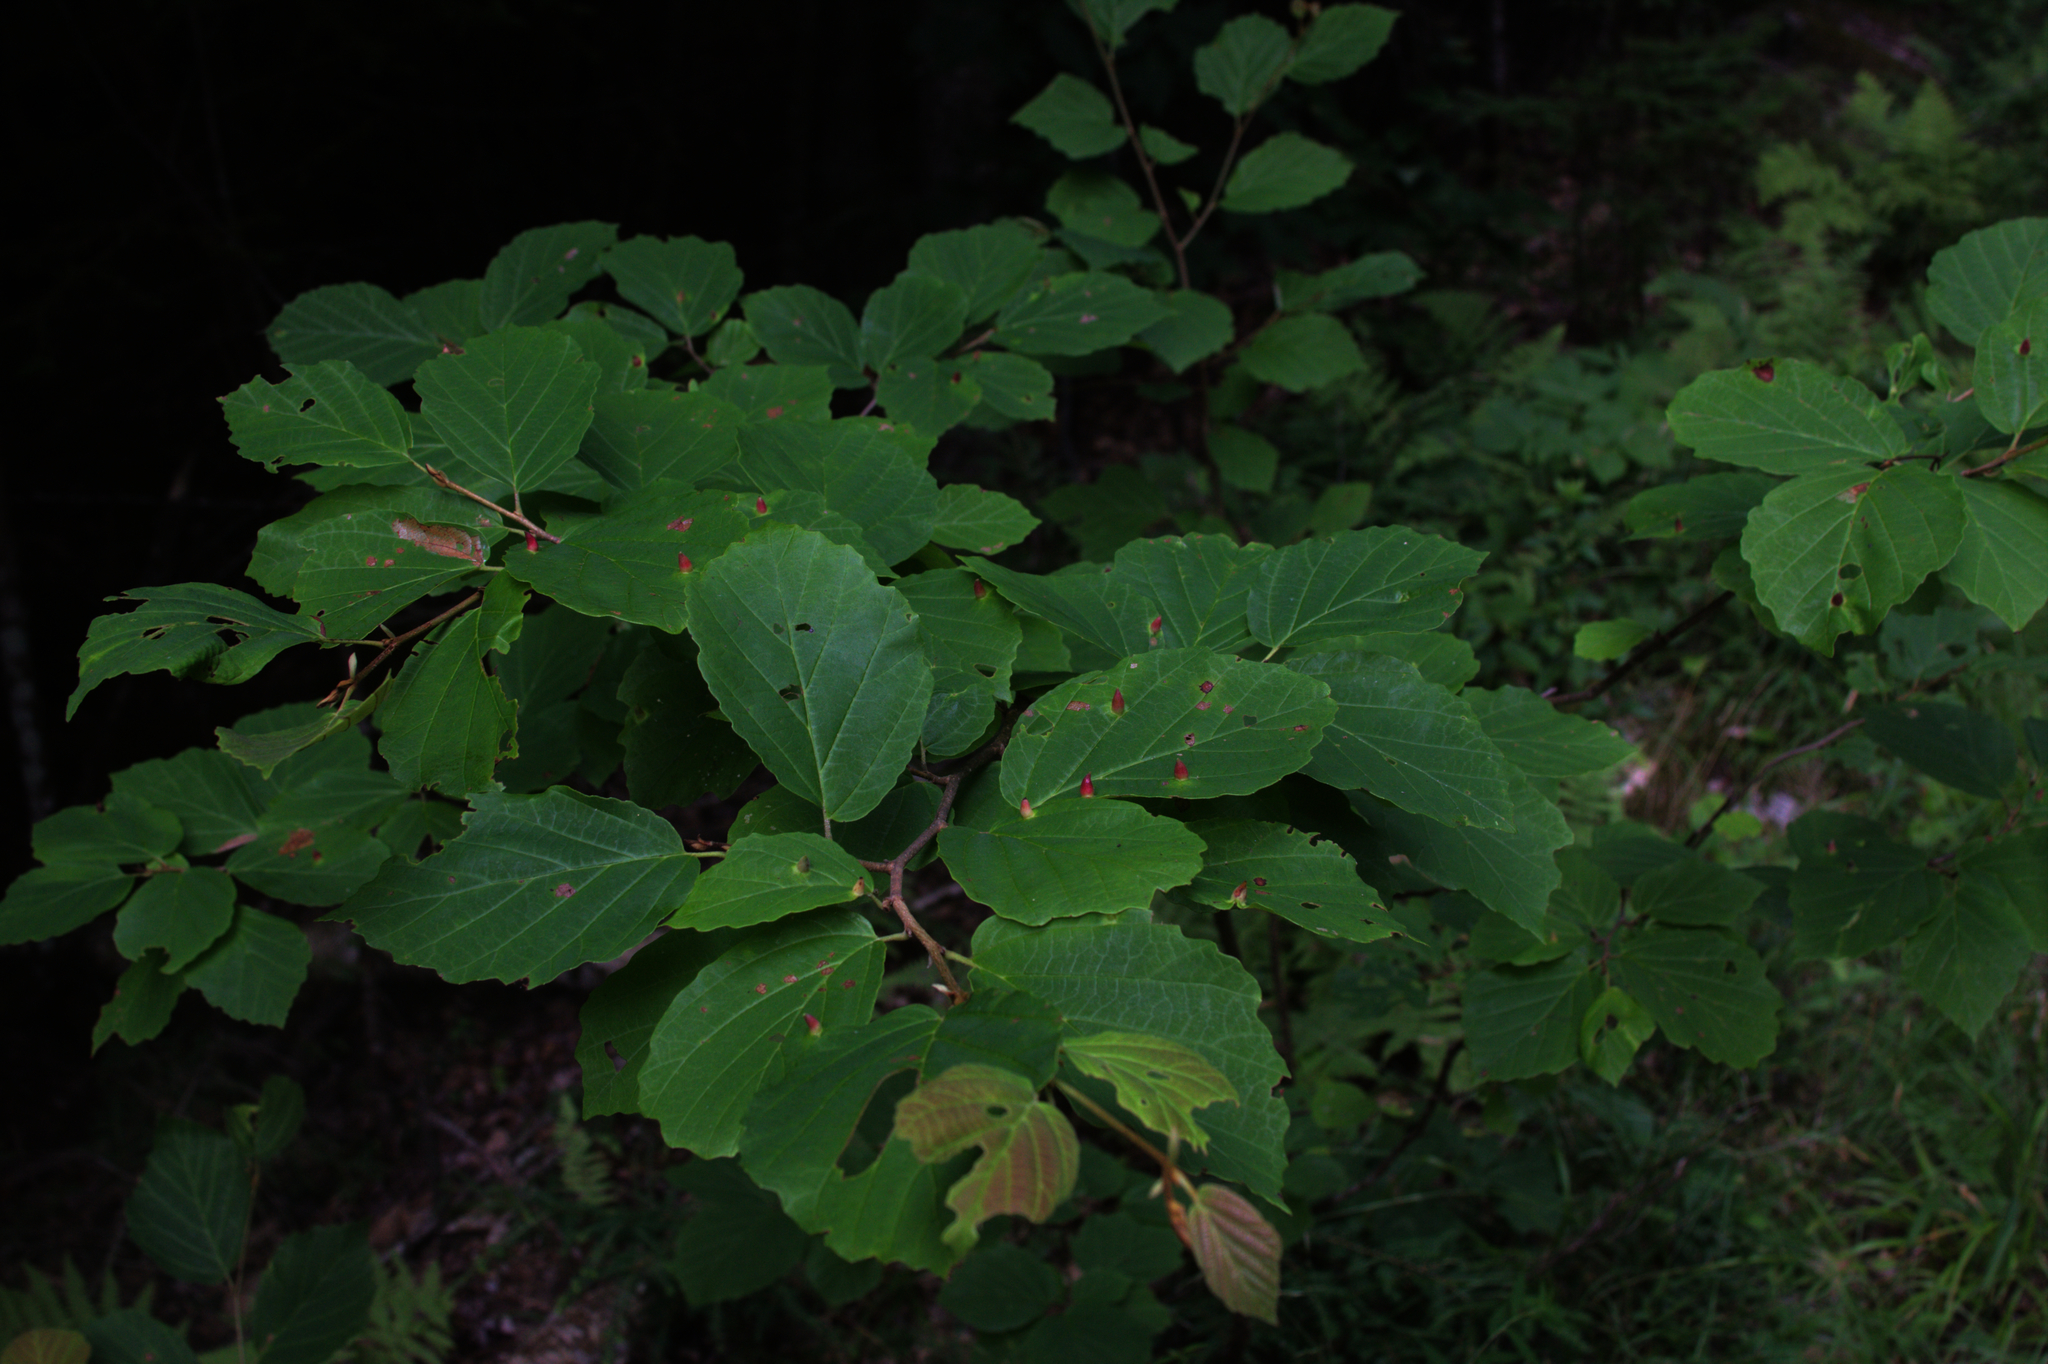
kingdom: Plantae
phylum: Tracheophyta
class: Magnoliopsida
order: Saxifragales
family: Hamamelidaceae
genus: Hamamelis
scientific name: Hamamelis virginiana
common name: Witch-hazel
